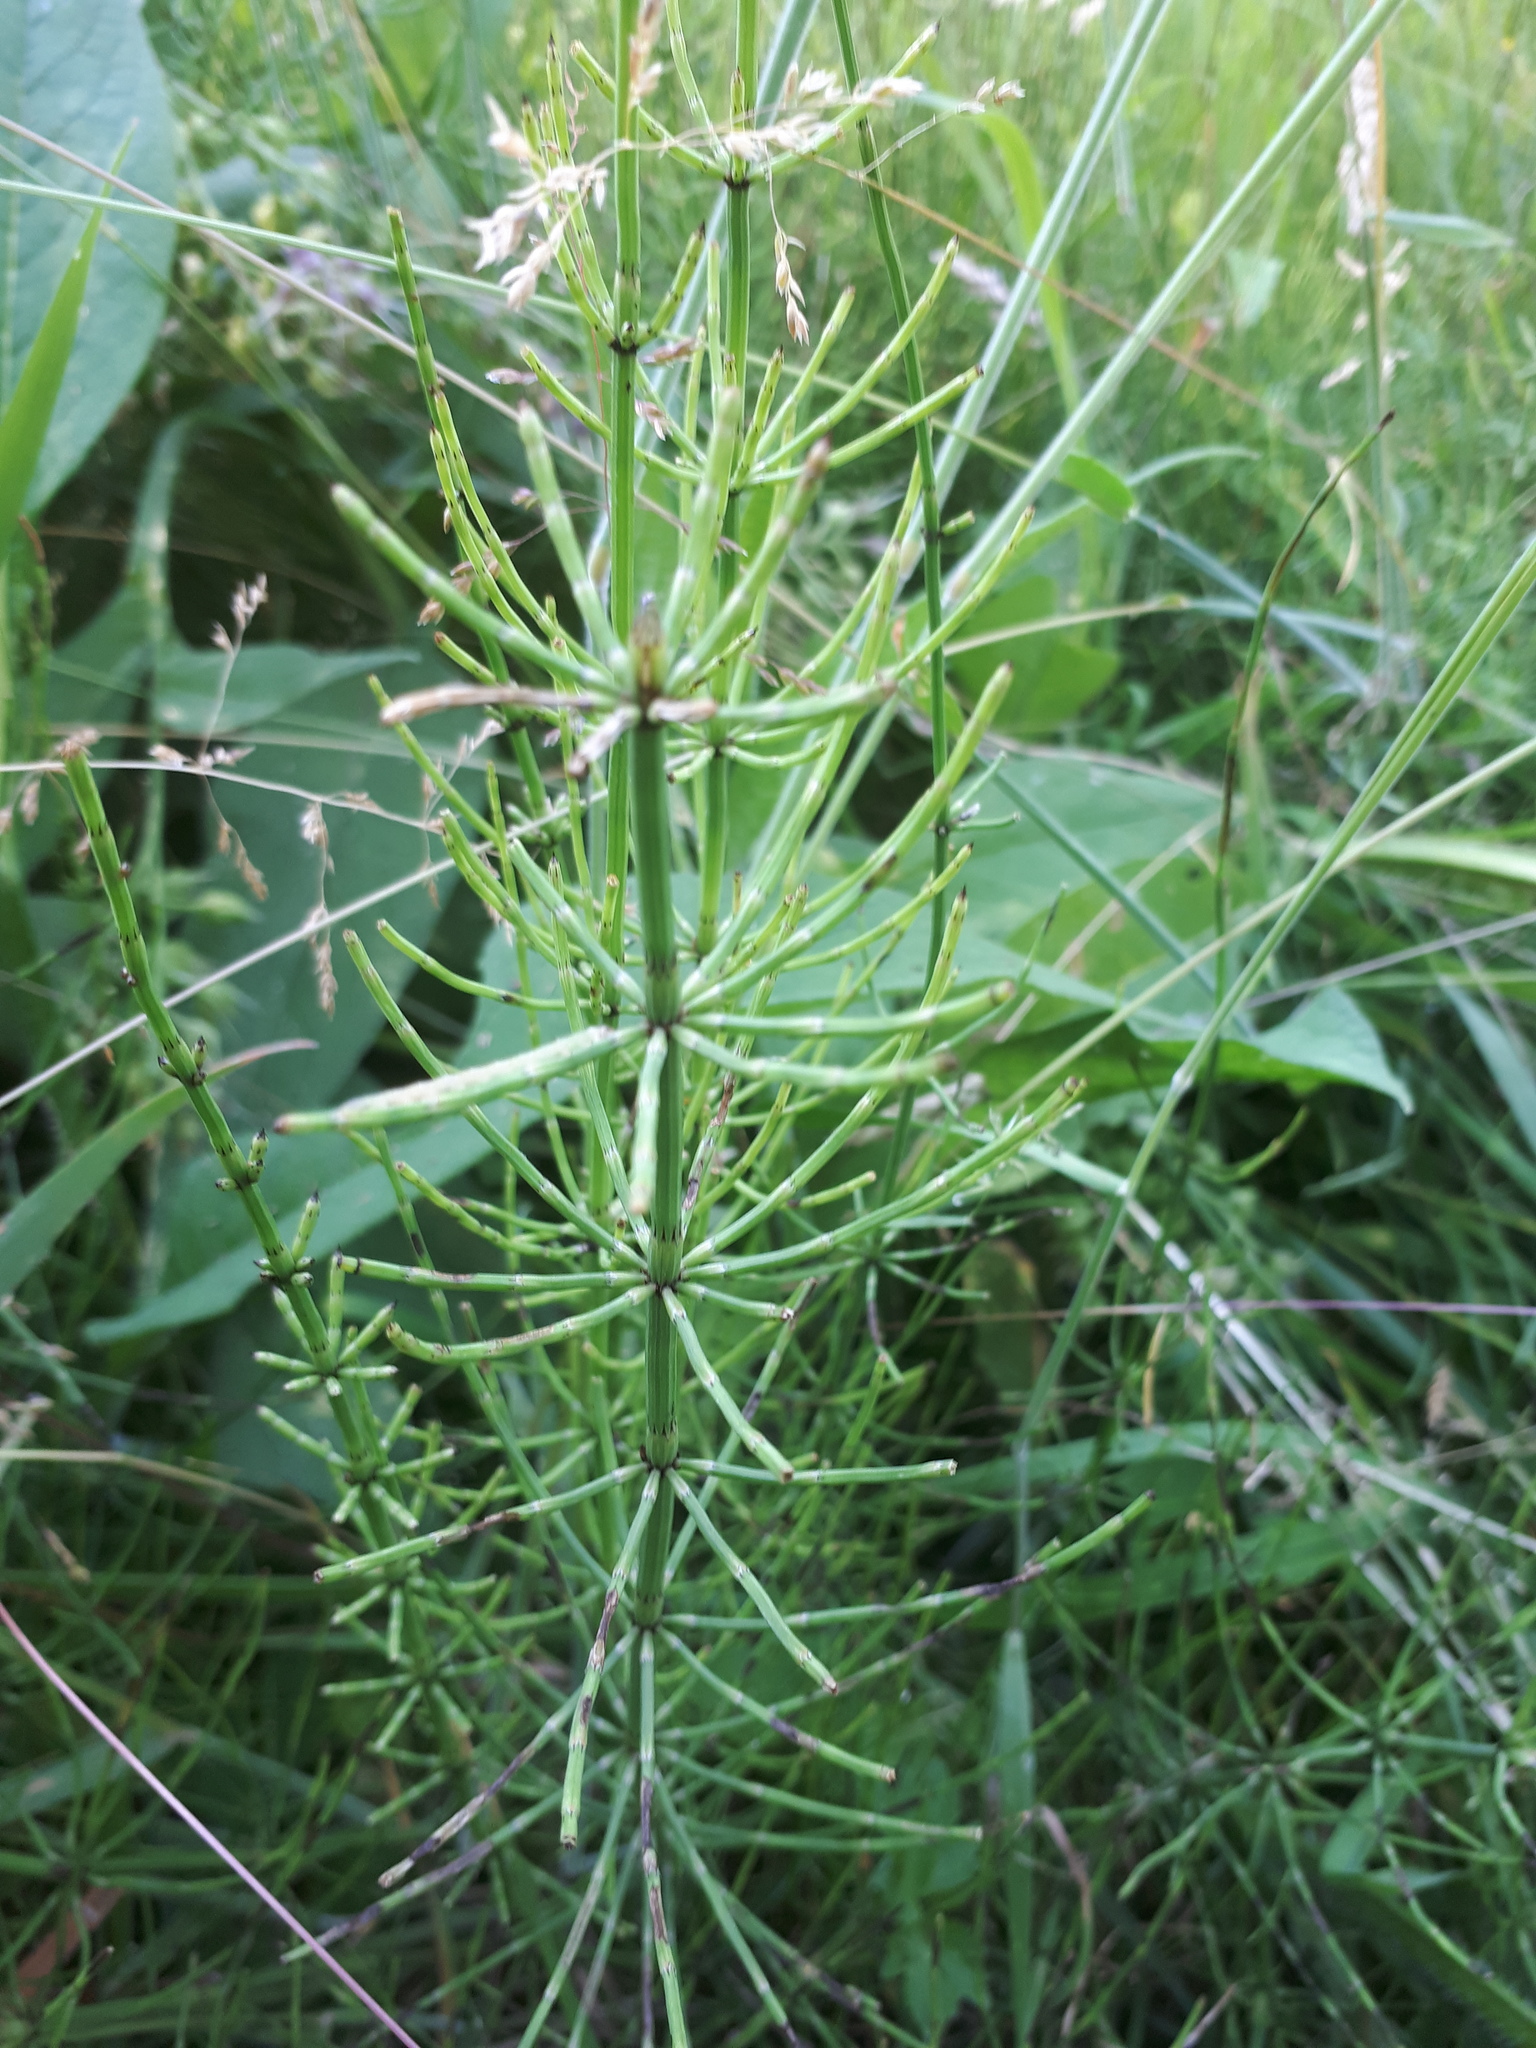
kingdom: Plantae
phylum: Tracheophyta
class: Polypodiopsida
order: Equisetales
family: Equisetaceae
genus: Equisetum
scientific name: Equisetum palustre
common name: Marsh horsetail
